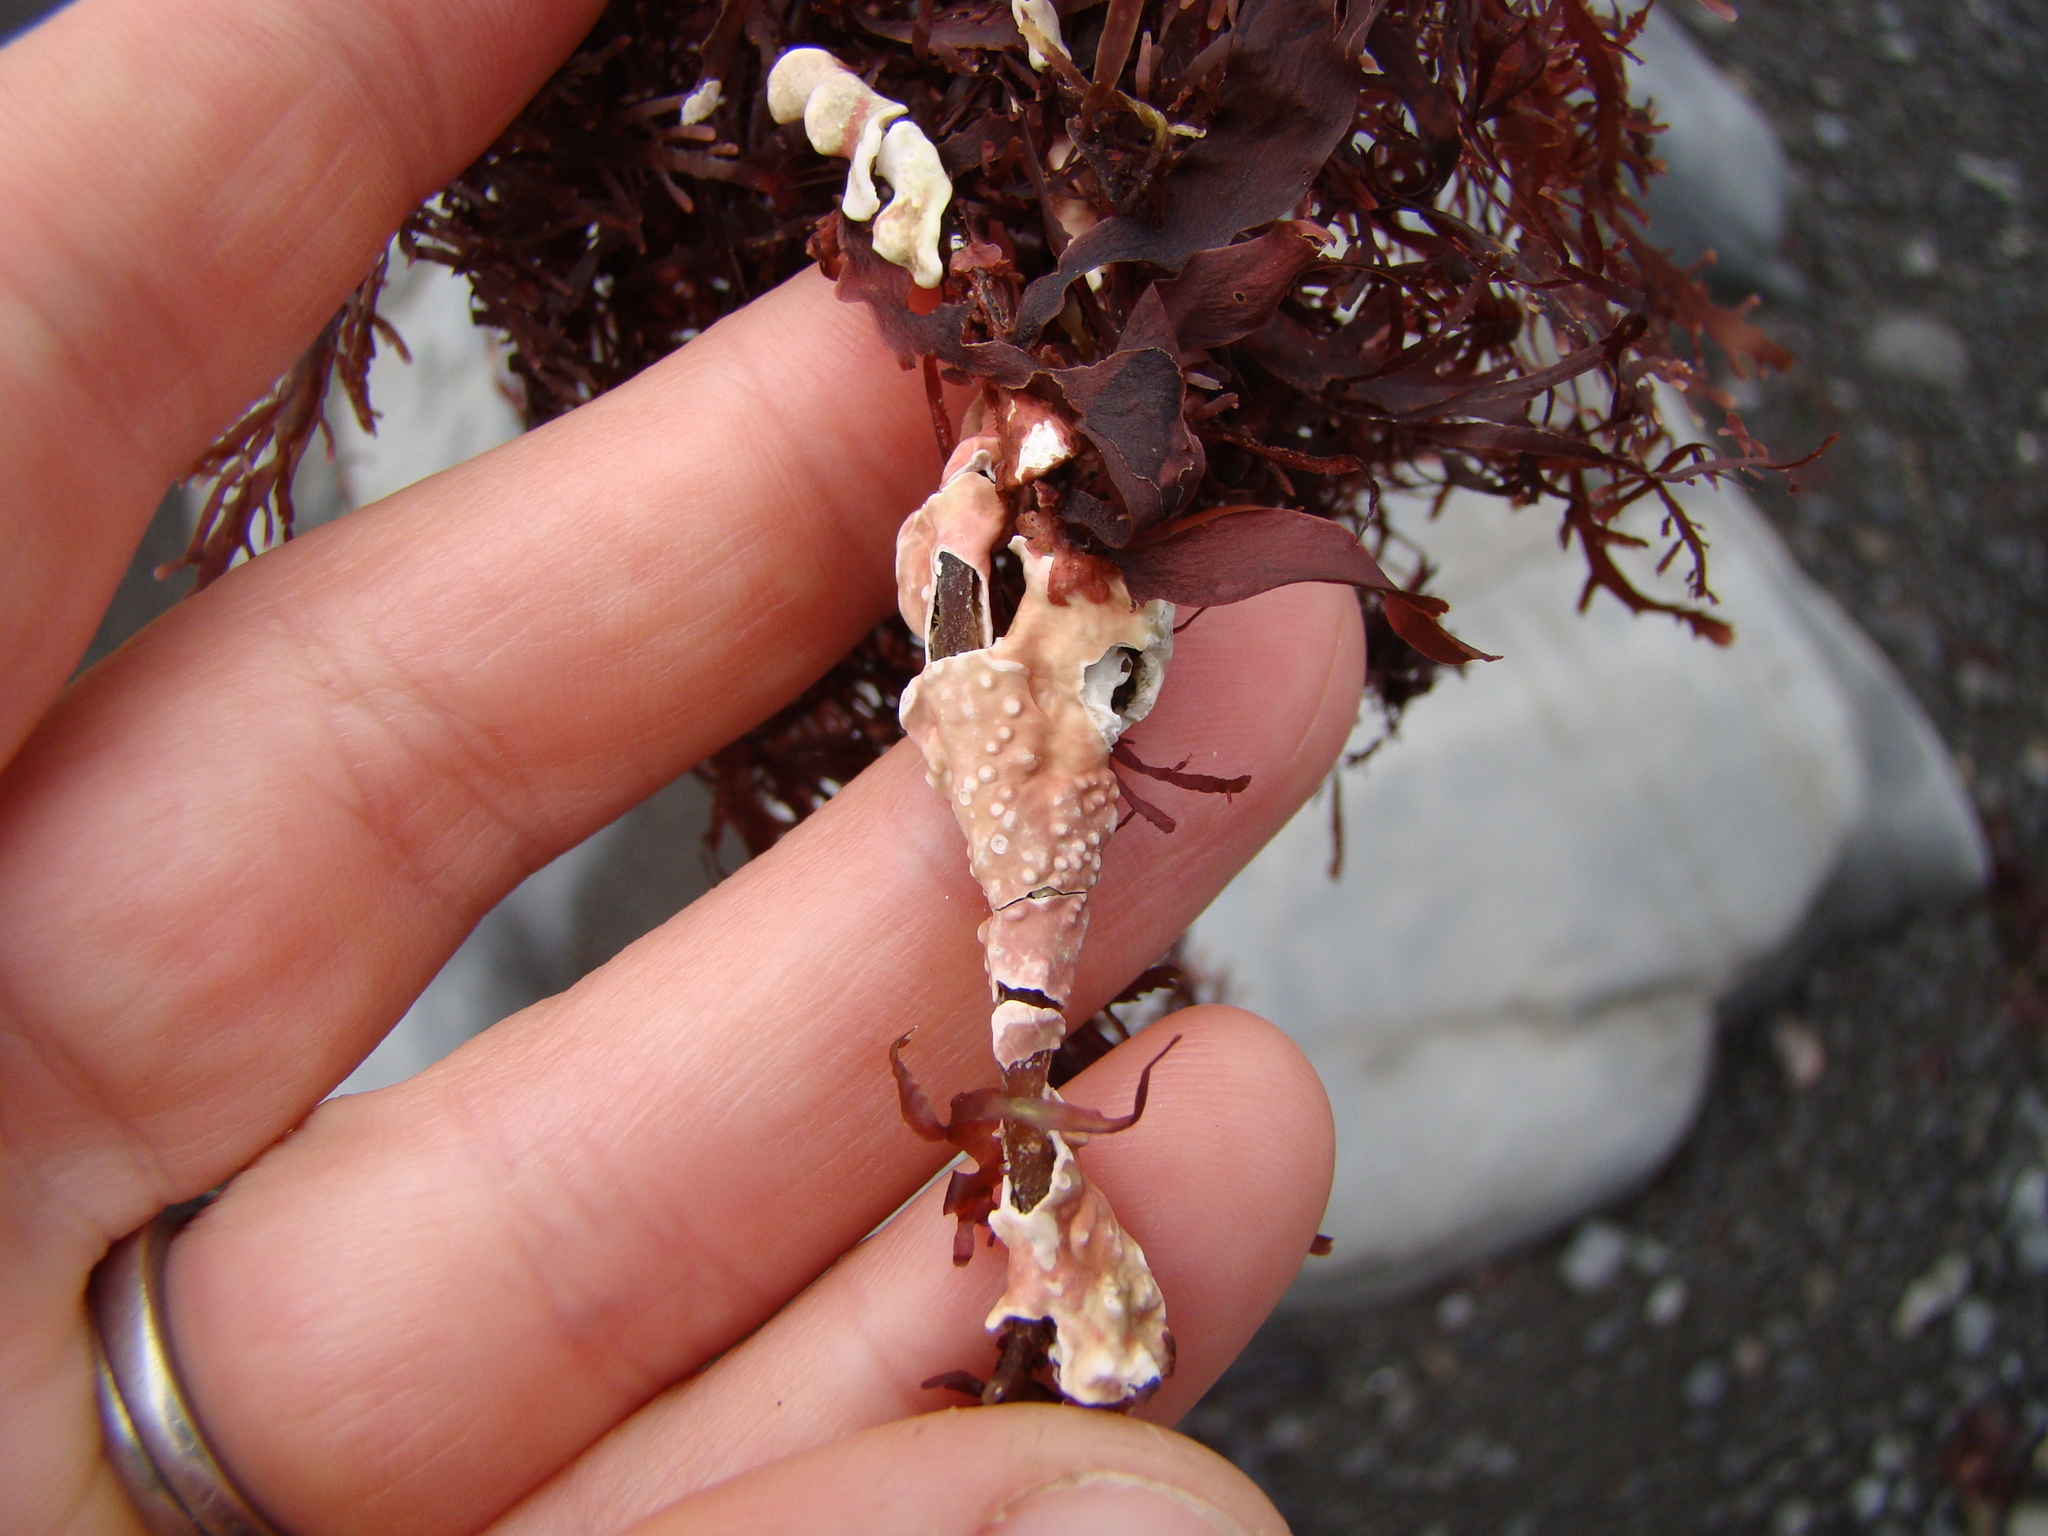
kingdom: Plantae
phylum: Rhodophyta
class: Florideophyceae
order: Corallinales
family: Lithophyllaceae
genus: Lithophyllum
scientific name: Lithophyllum pustulatum
